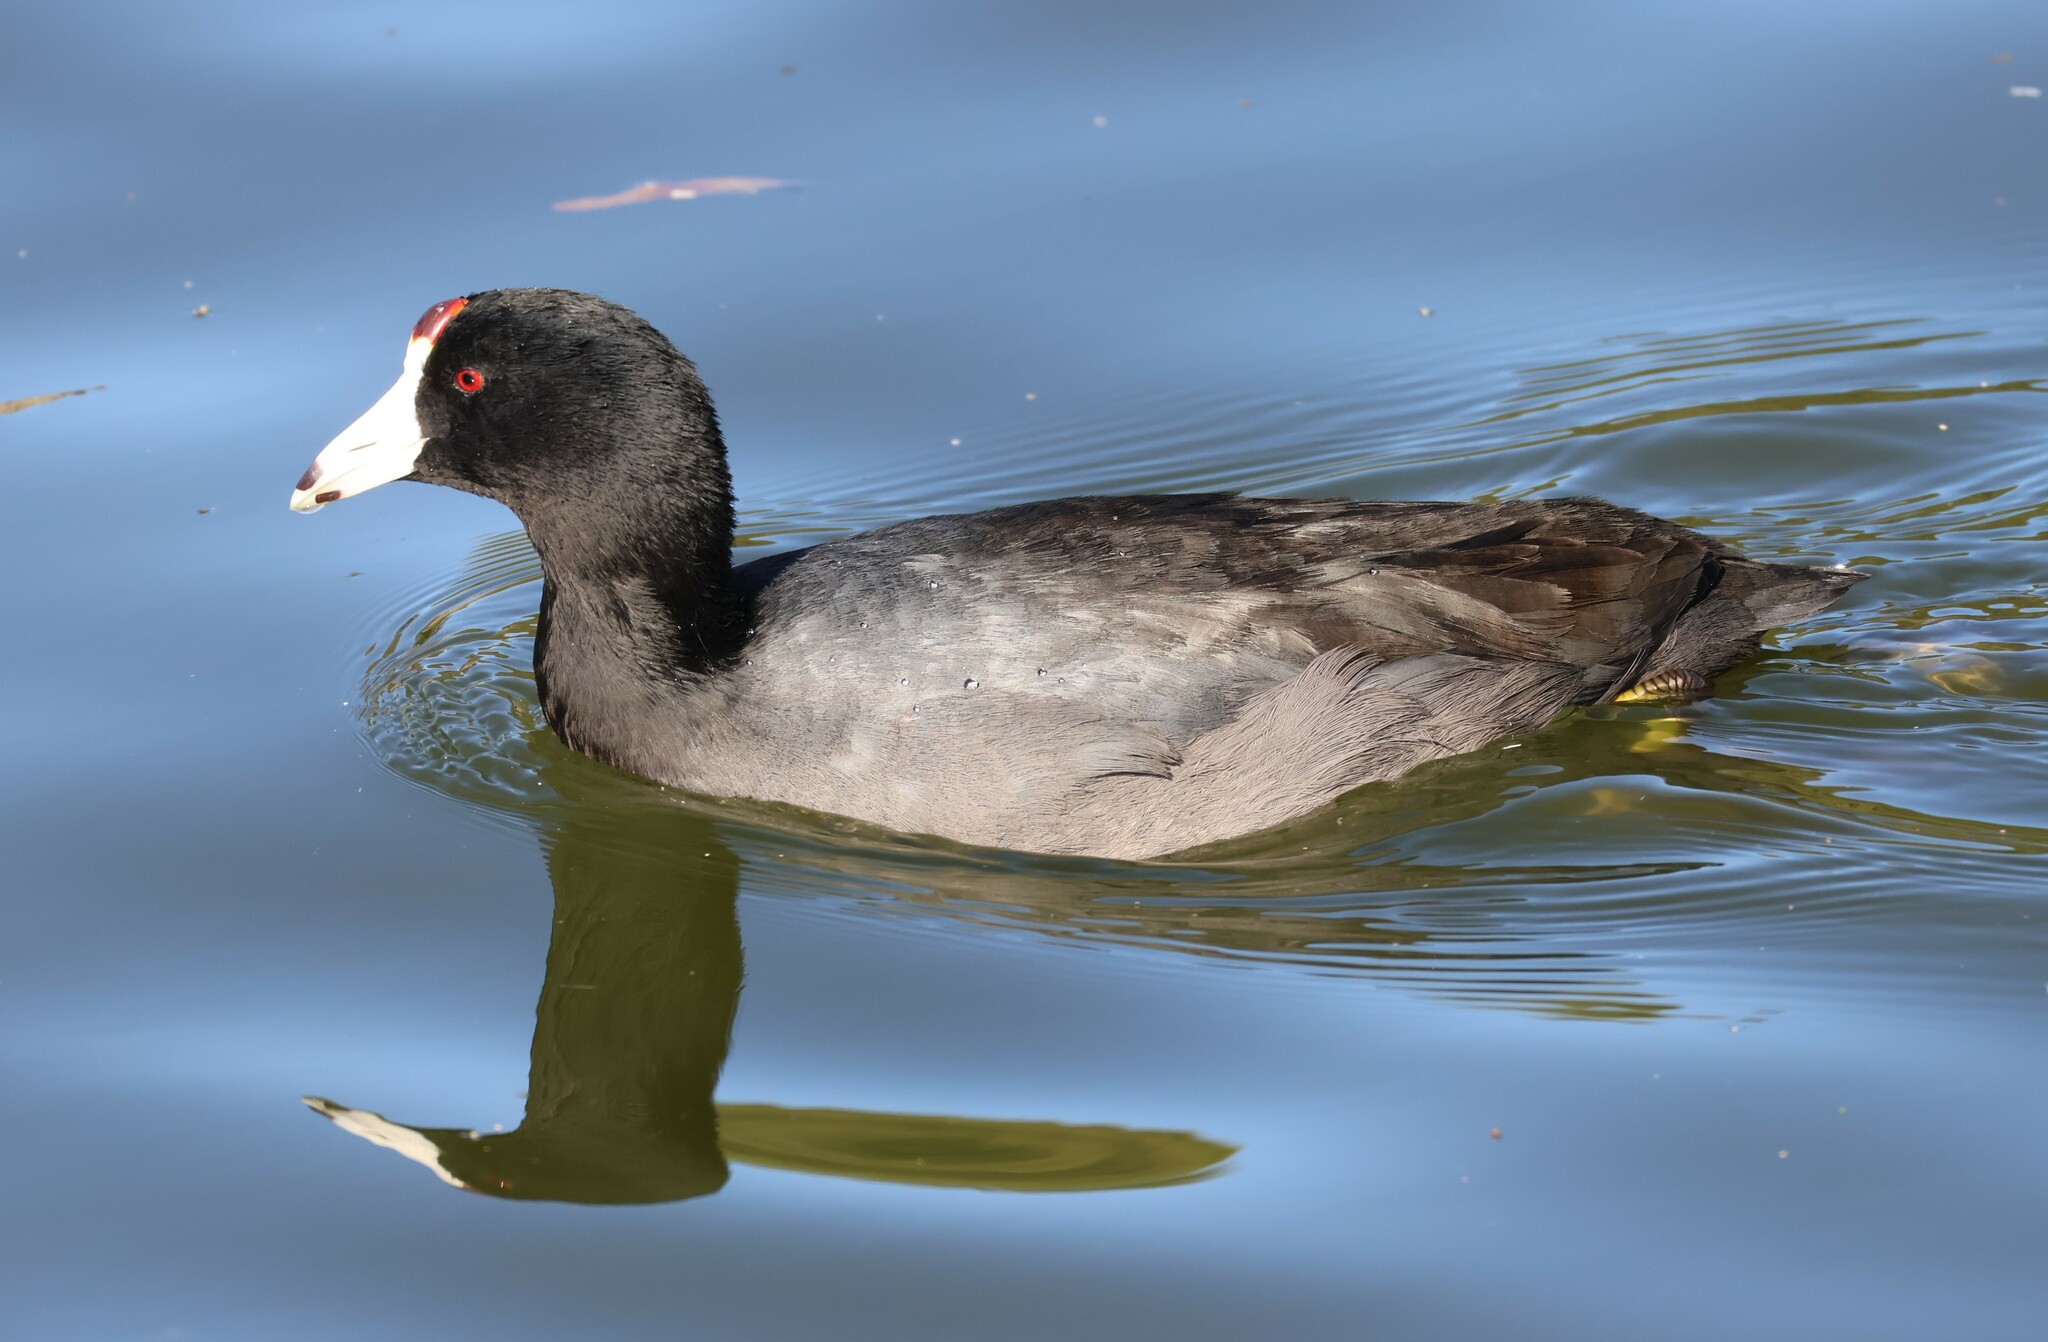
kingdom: Animalia
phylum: Chordata
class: Aves
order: Gruiformes
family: Rallidae
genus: Fulica
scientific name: Fulica americana
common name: American coot
